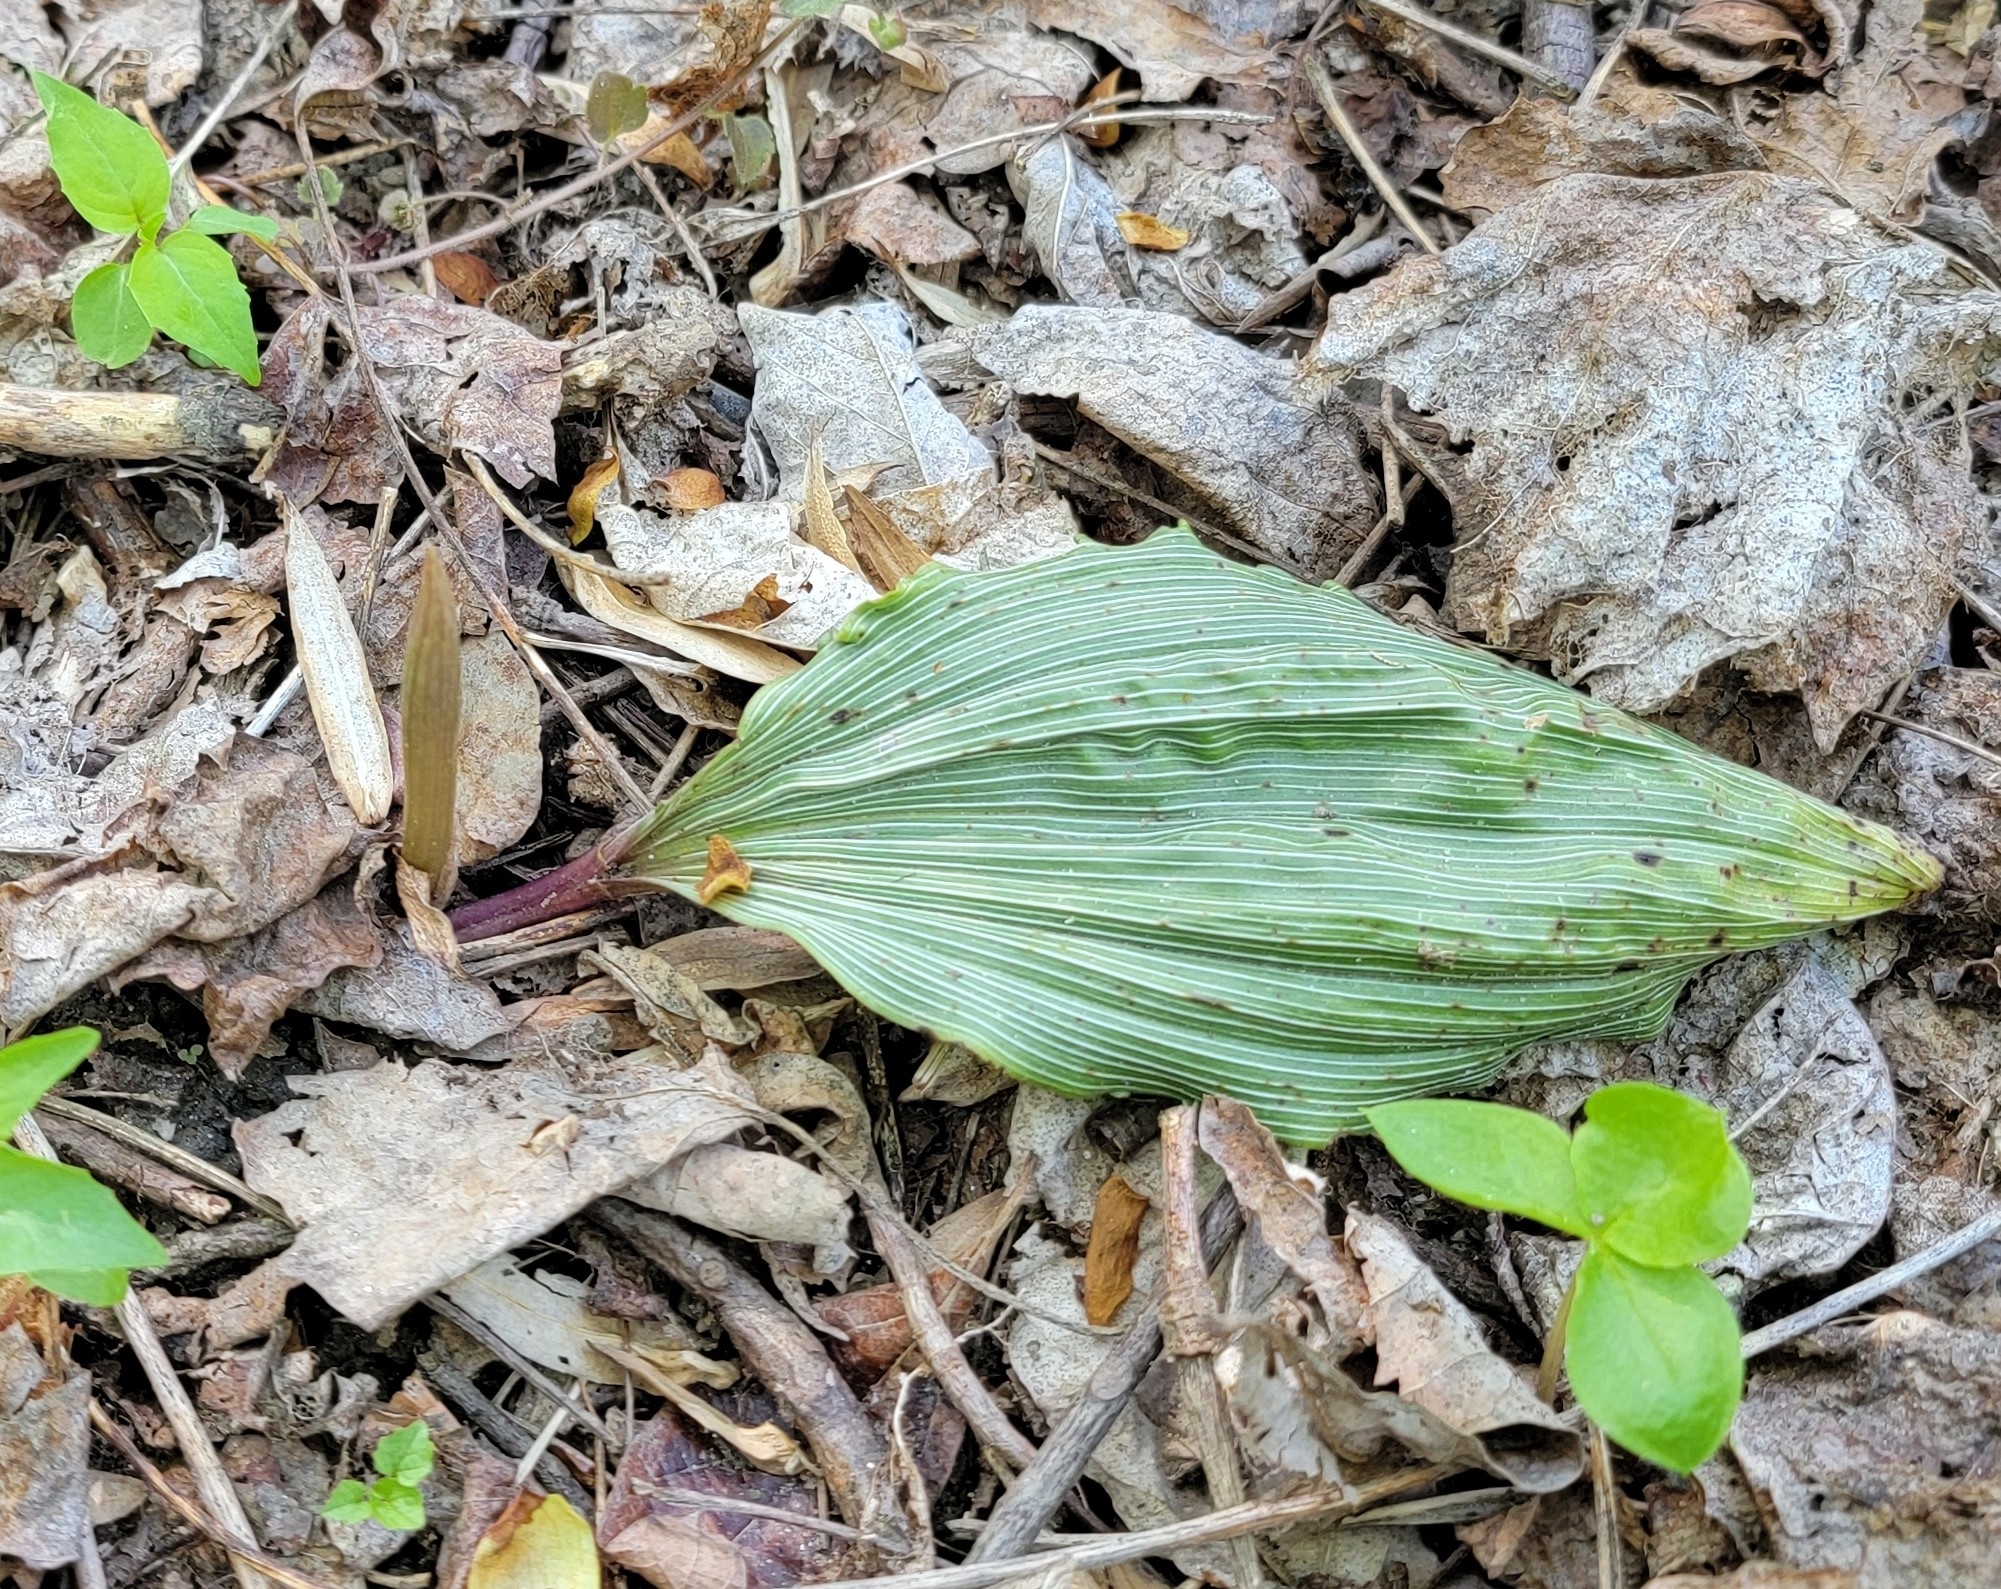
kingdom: Plantae
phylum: Tracheophyta
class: Liliopsida
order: Asparagales
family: Orchidaceae
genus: Aplectrum
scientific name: Aplectrum hyemale
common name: Adam-and-eve
